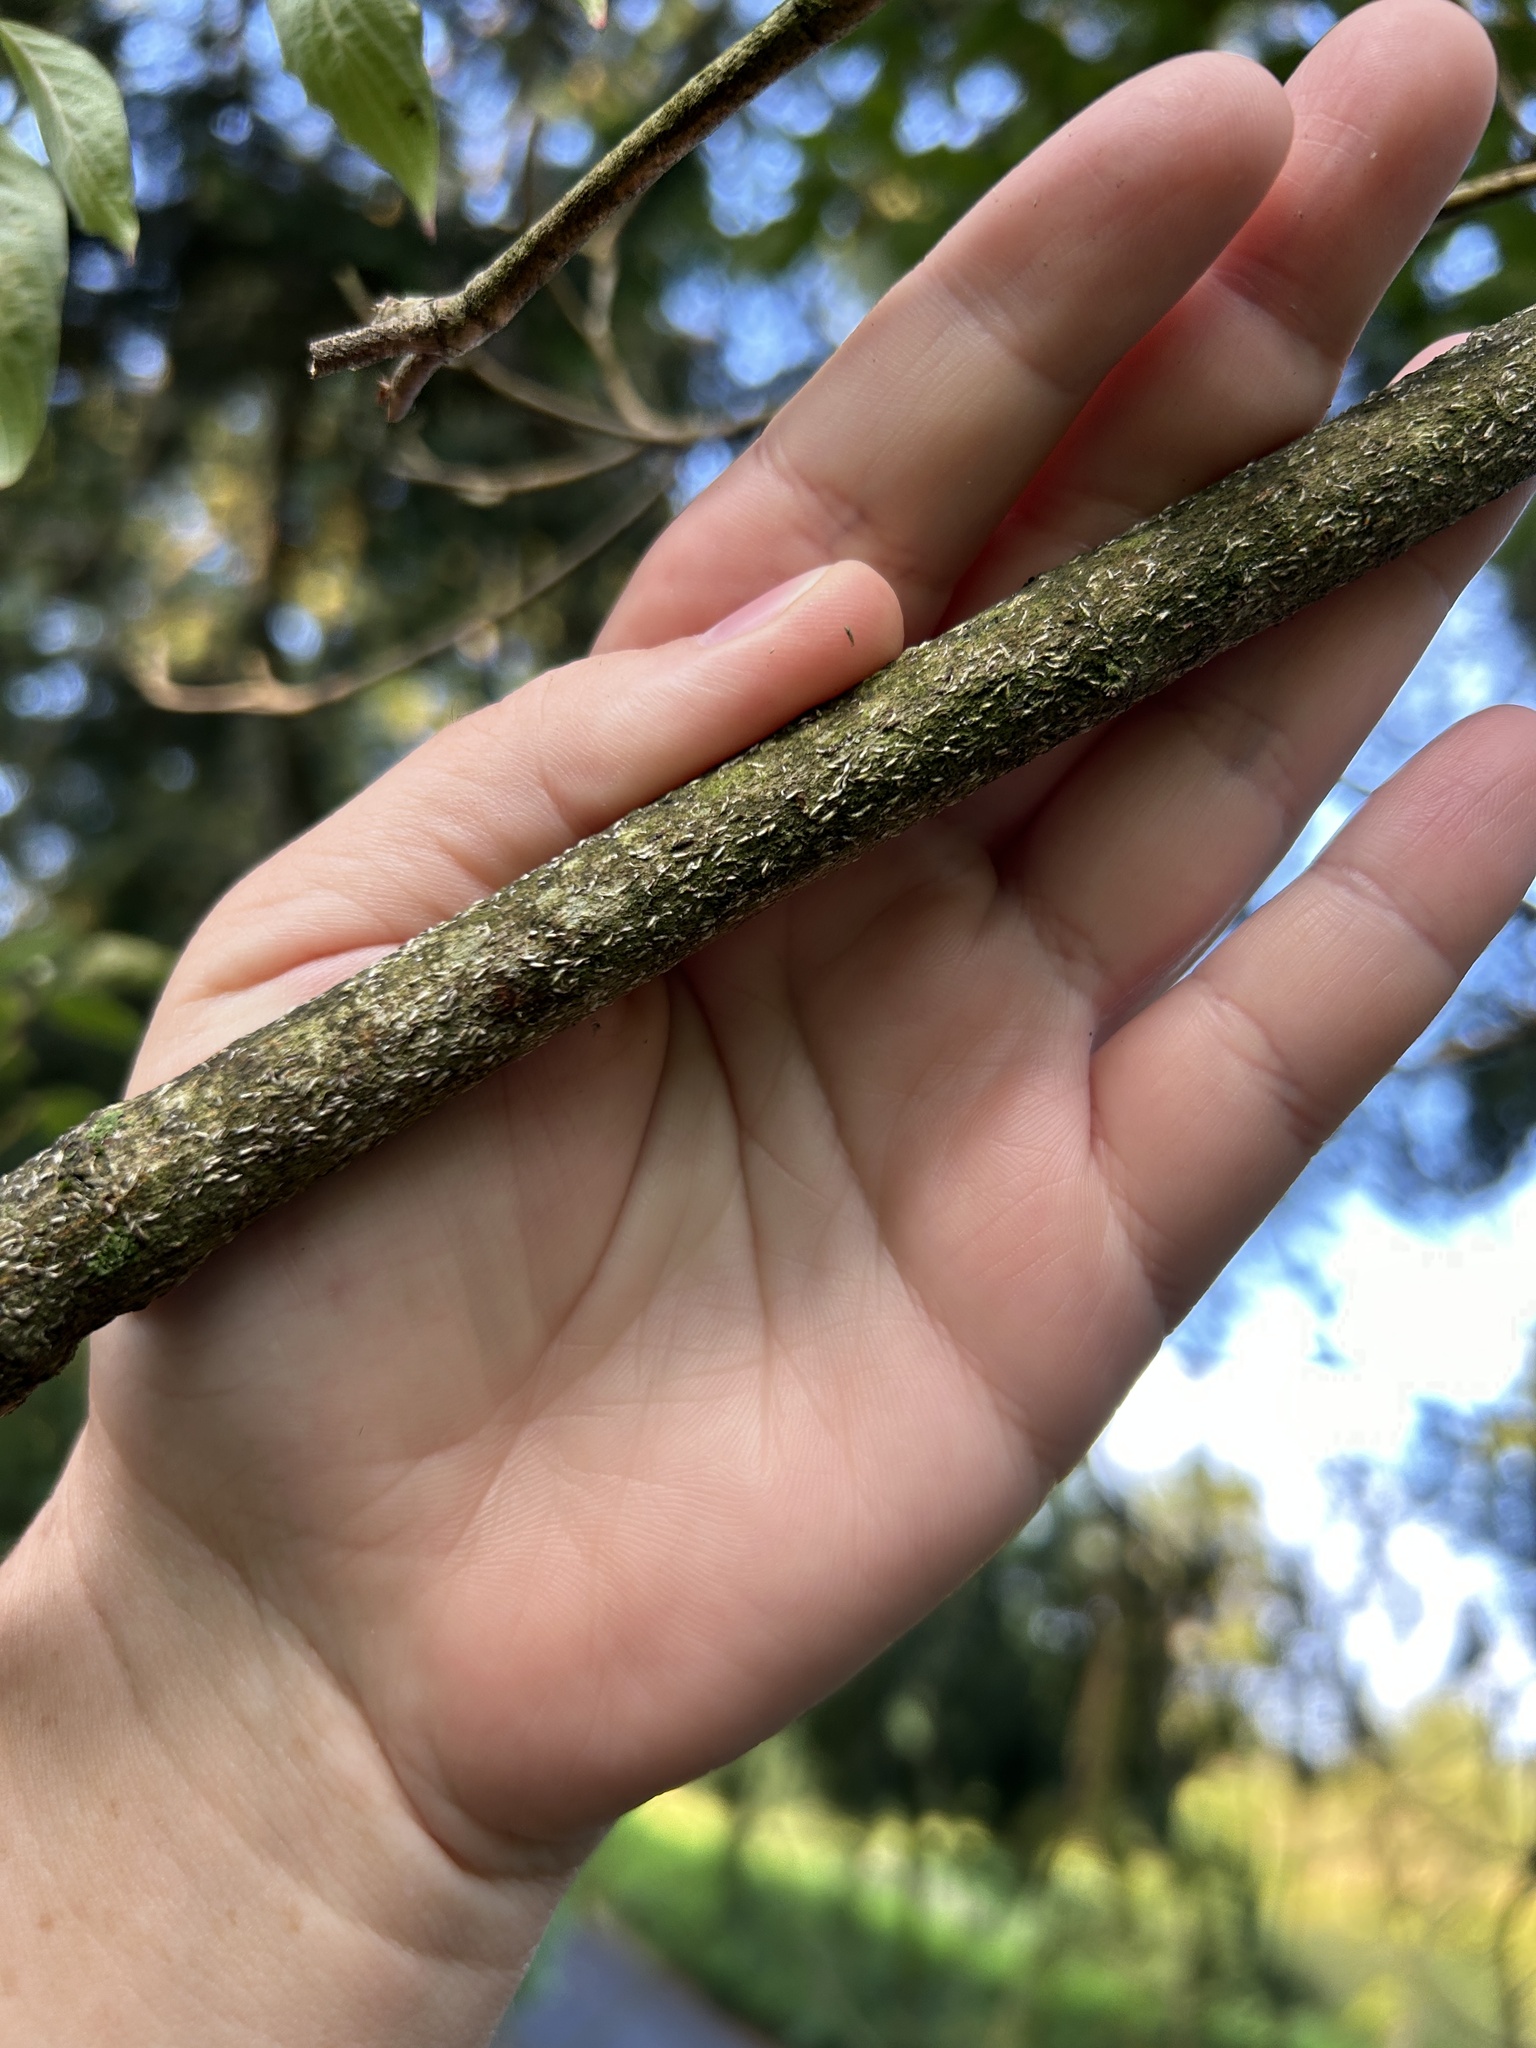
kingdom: Animalia
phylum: Arthropoda
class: Insecta
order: Hemiptera
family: Diaspididae
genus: Lopholeucaspis
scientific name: Lopholeucaspis japonica
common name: Japanese maple scale
